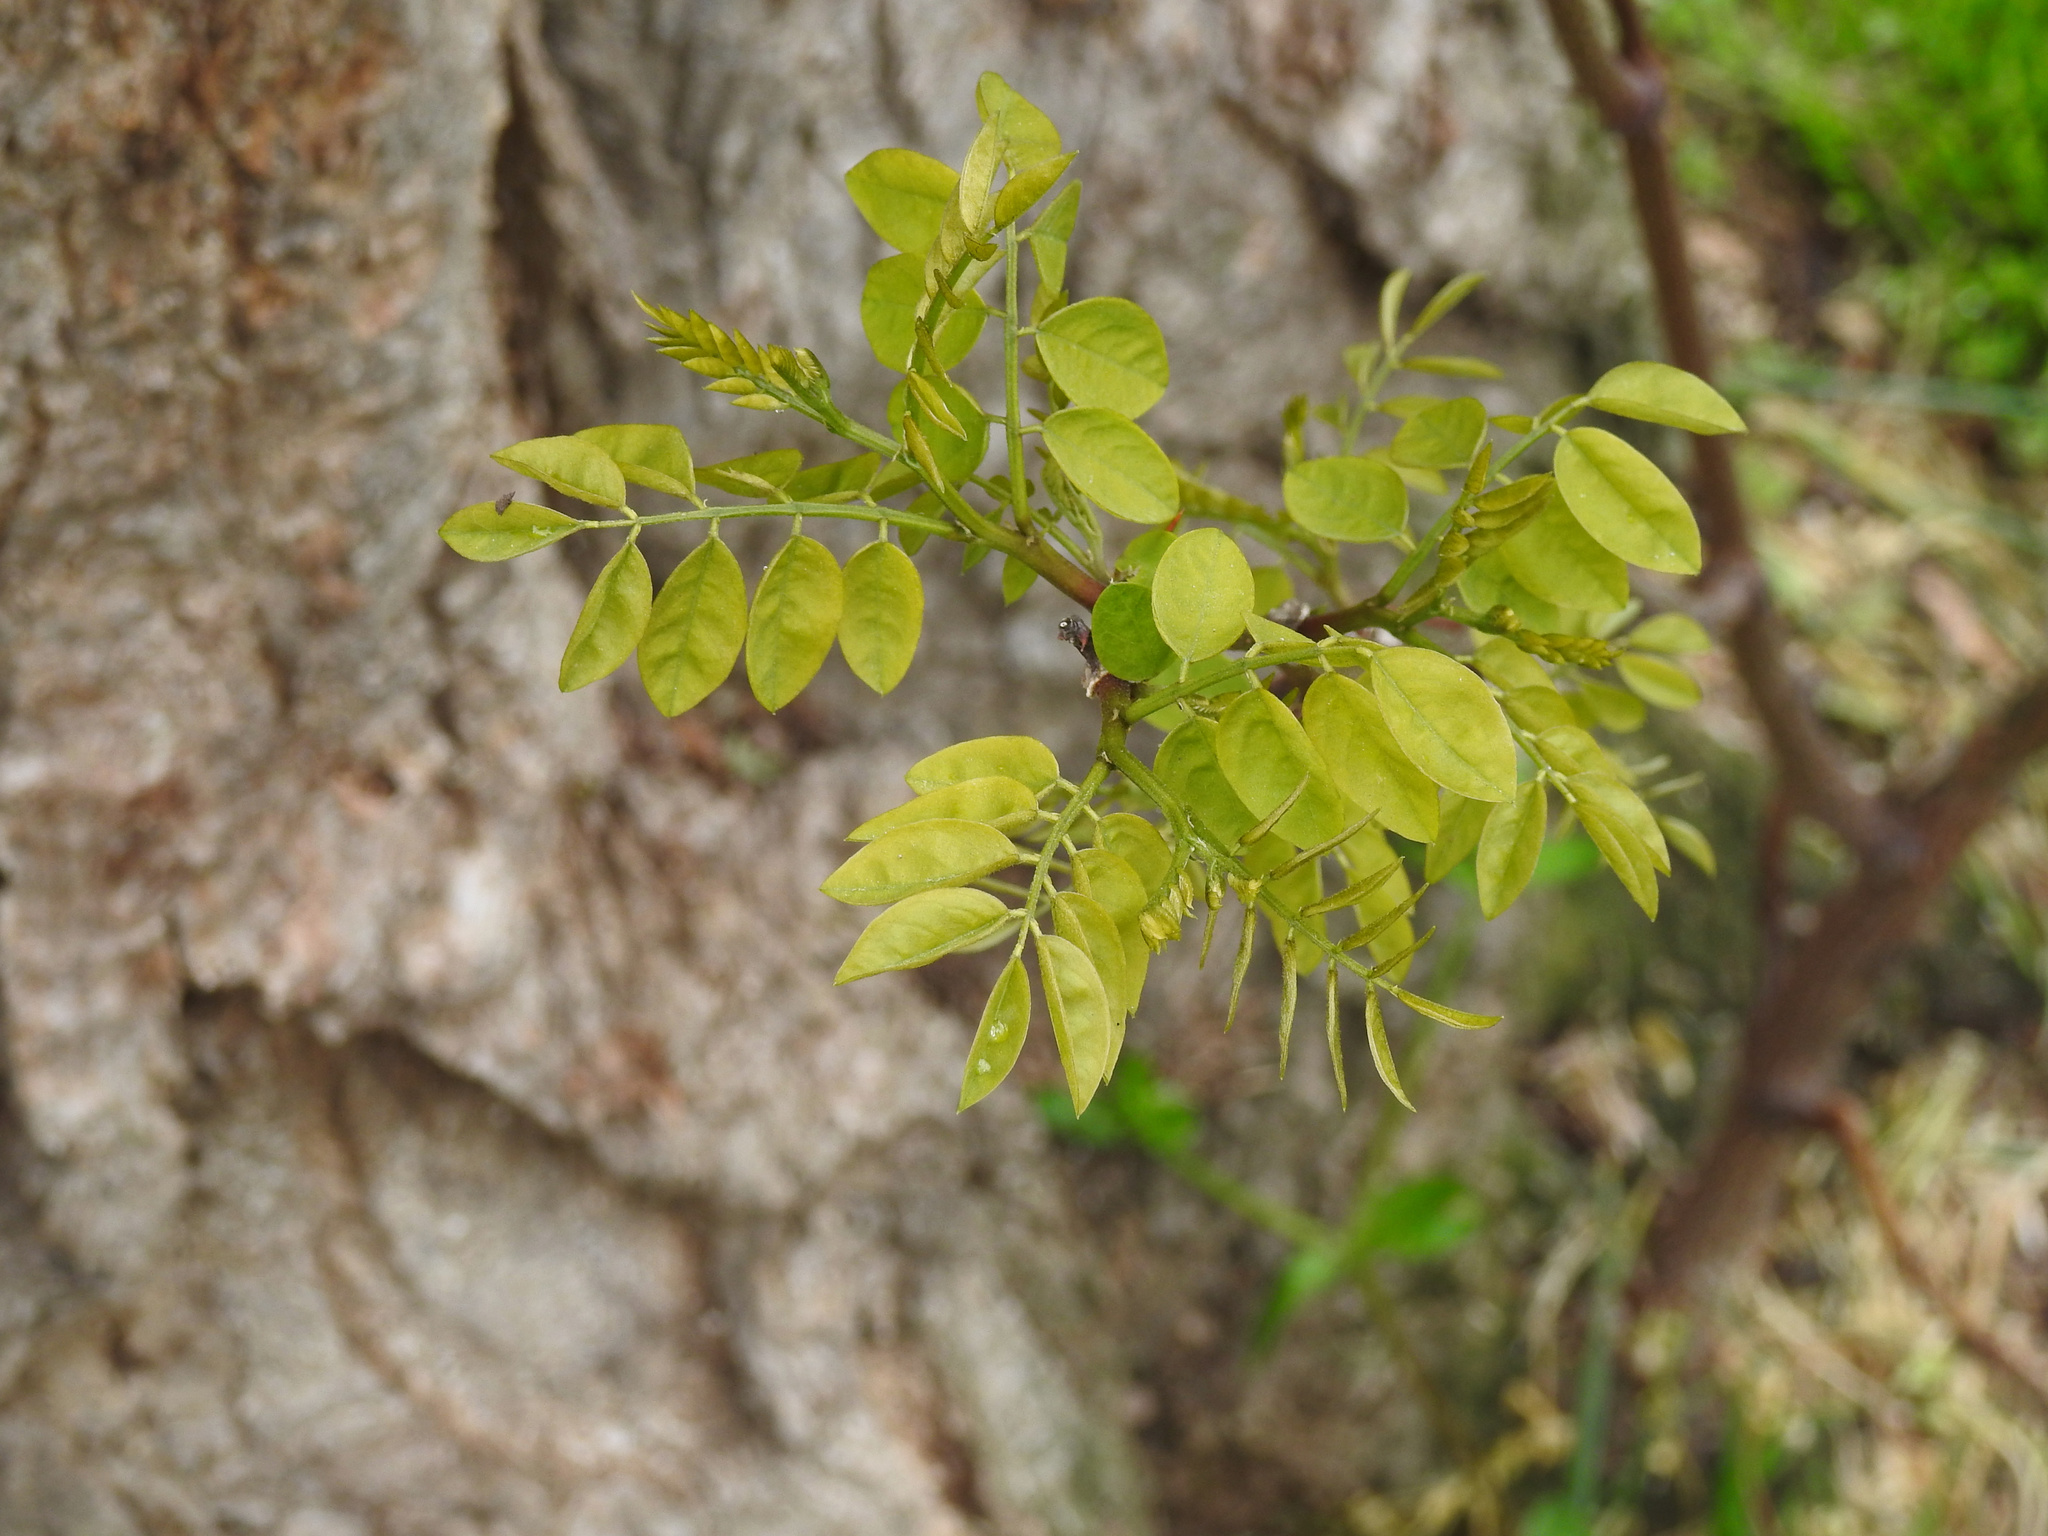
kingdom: Plantae
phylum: Tracheophyta
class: Magnoliopsida
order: Fabales
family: Fabaceae
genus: Robinia
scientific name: Robinia pseudoacacia
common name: Black locust
